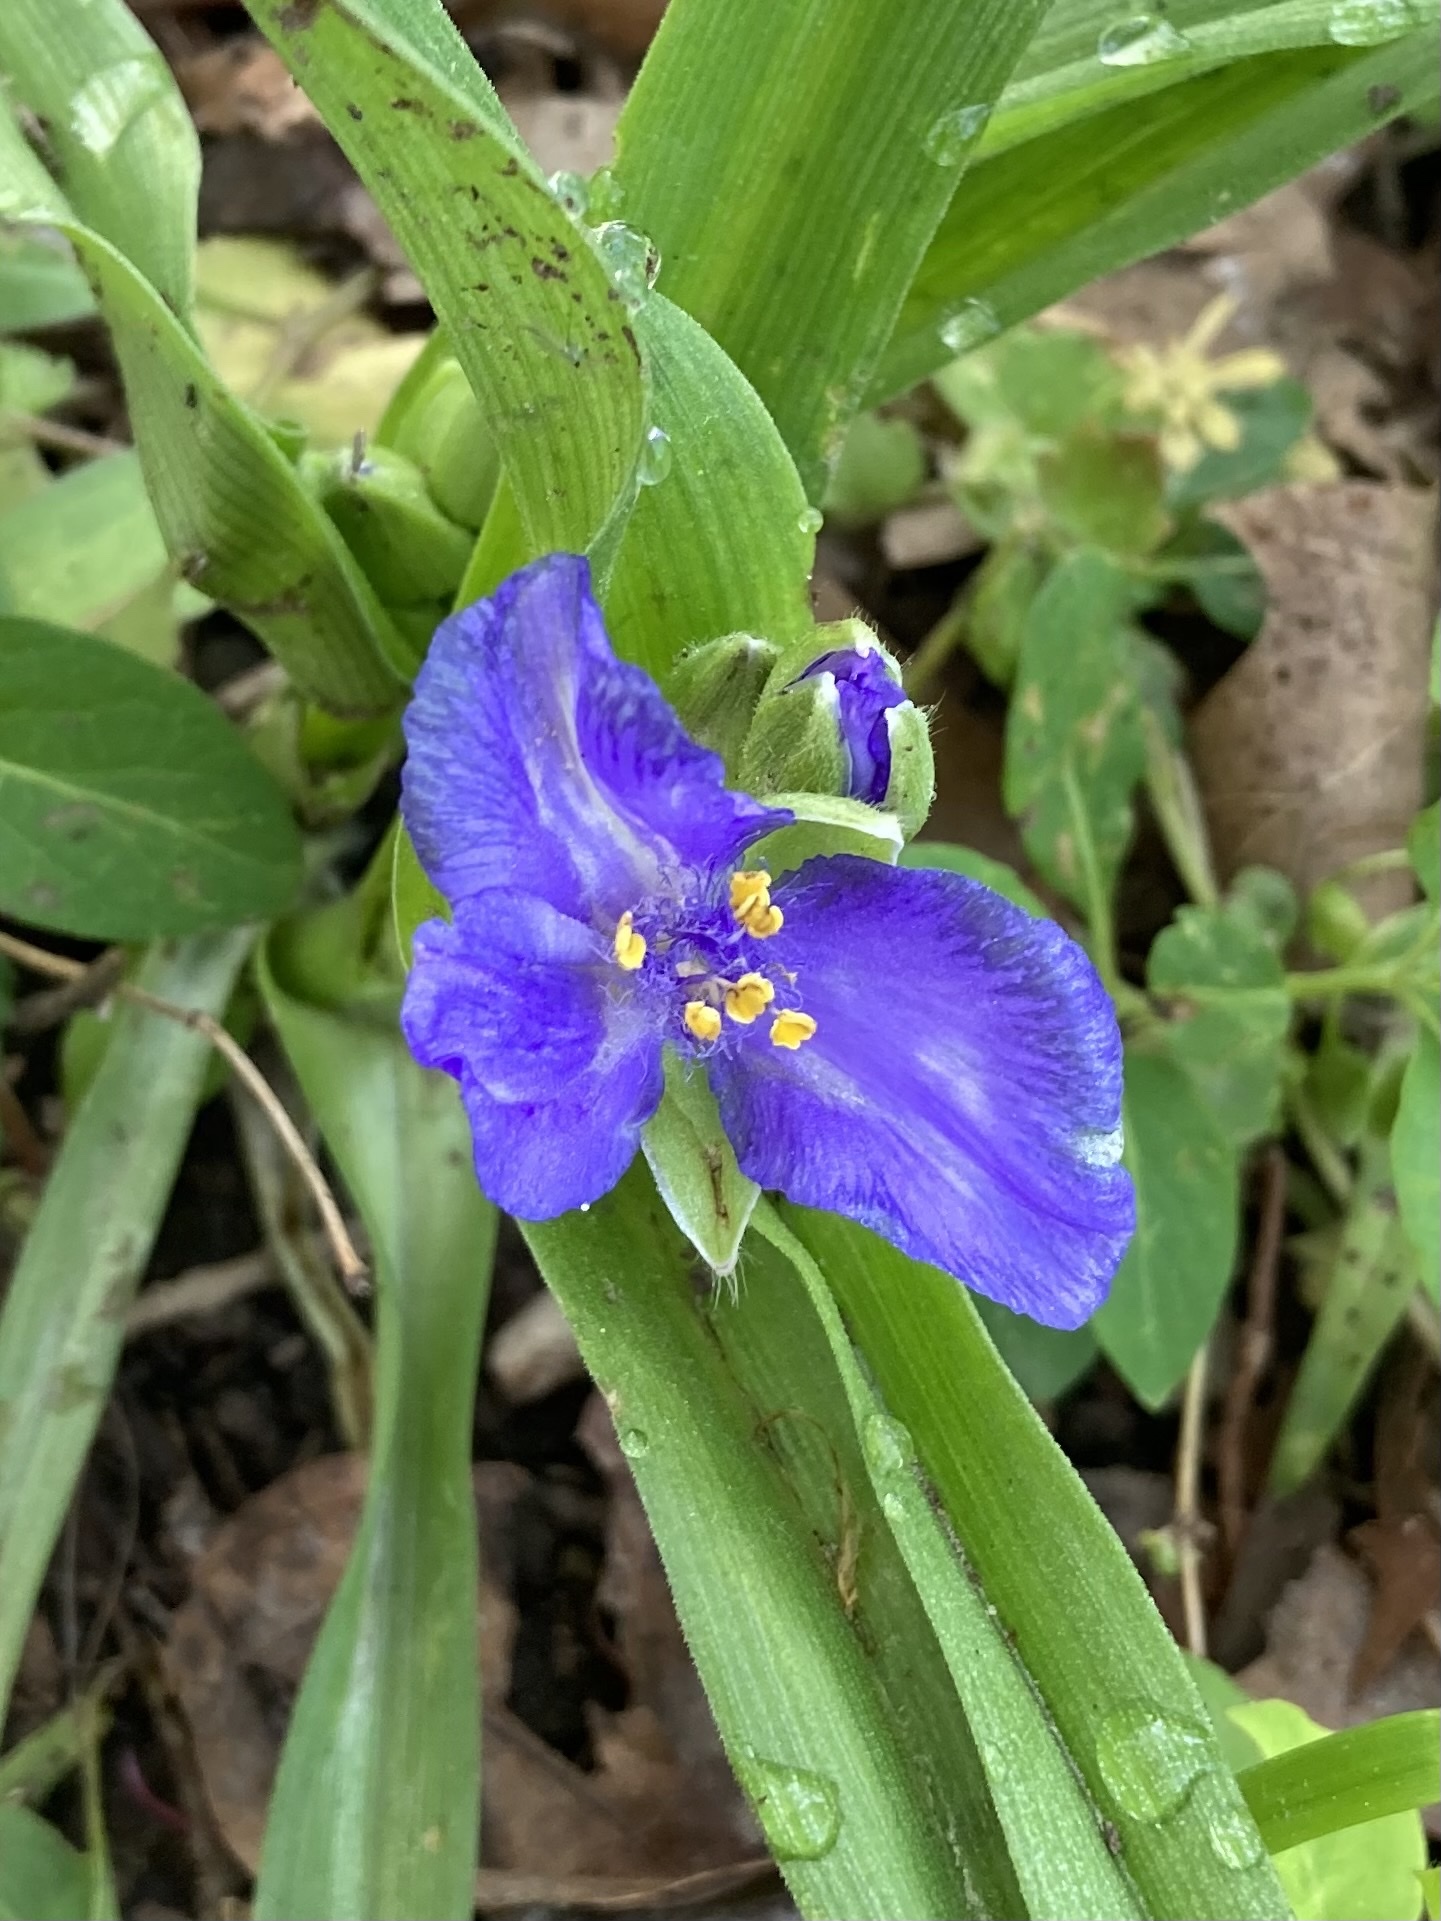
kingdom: Plantae
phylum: Tracheophyta
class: Liliopsida
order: Commelinales
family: Commelinaceae
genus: Tradescantia
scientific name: Tradescantia virginiana
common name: Spiderwort
